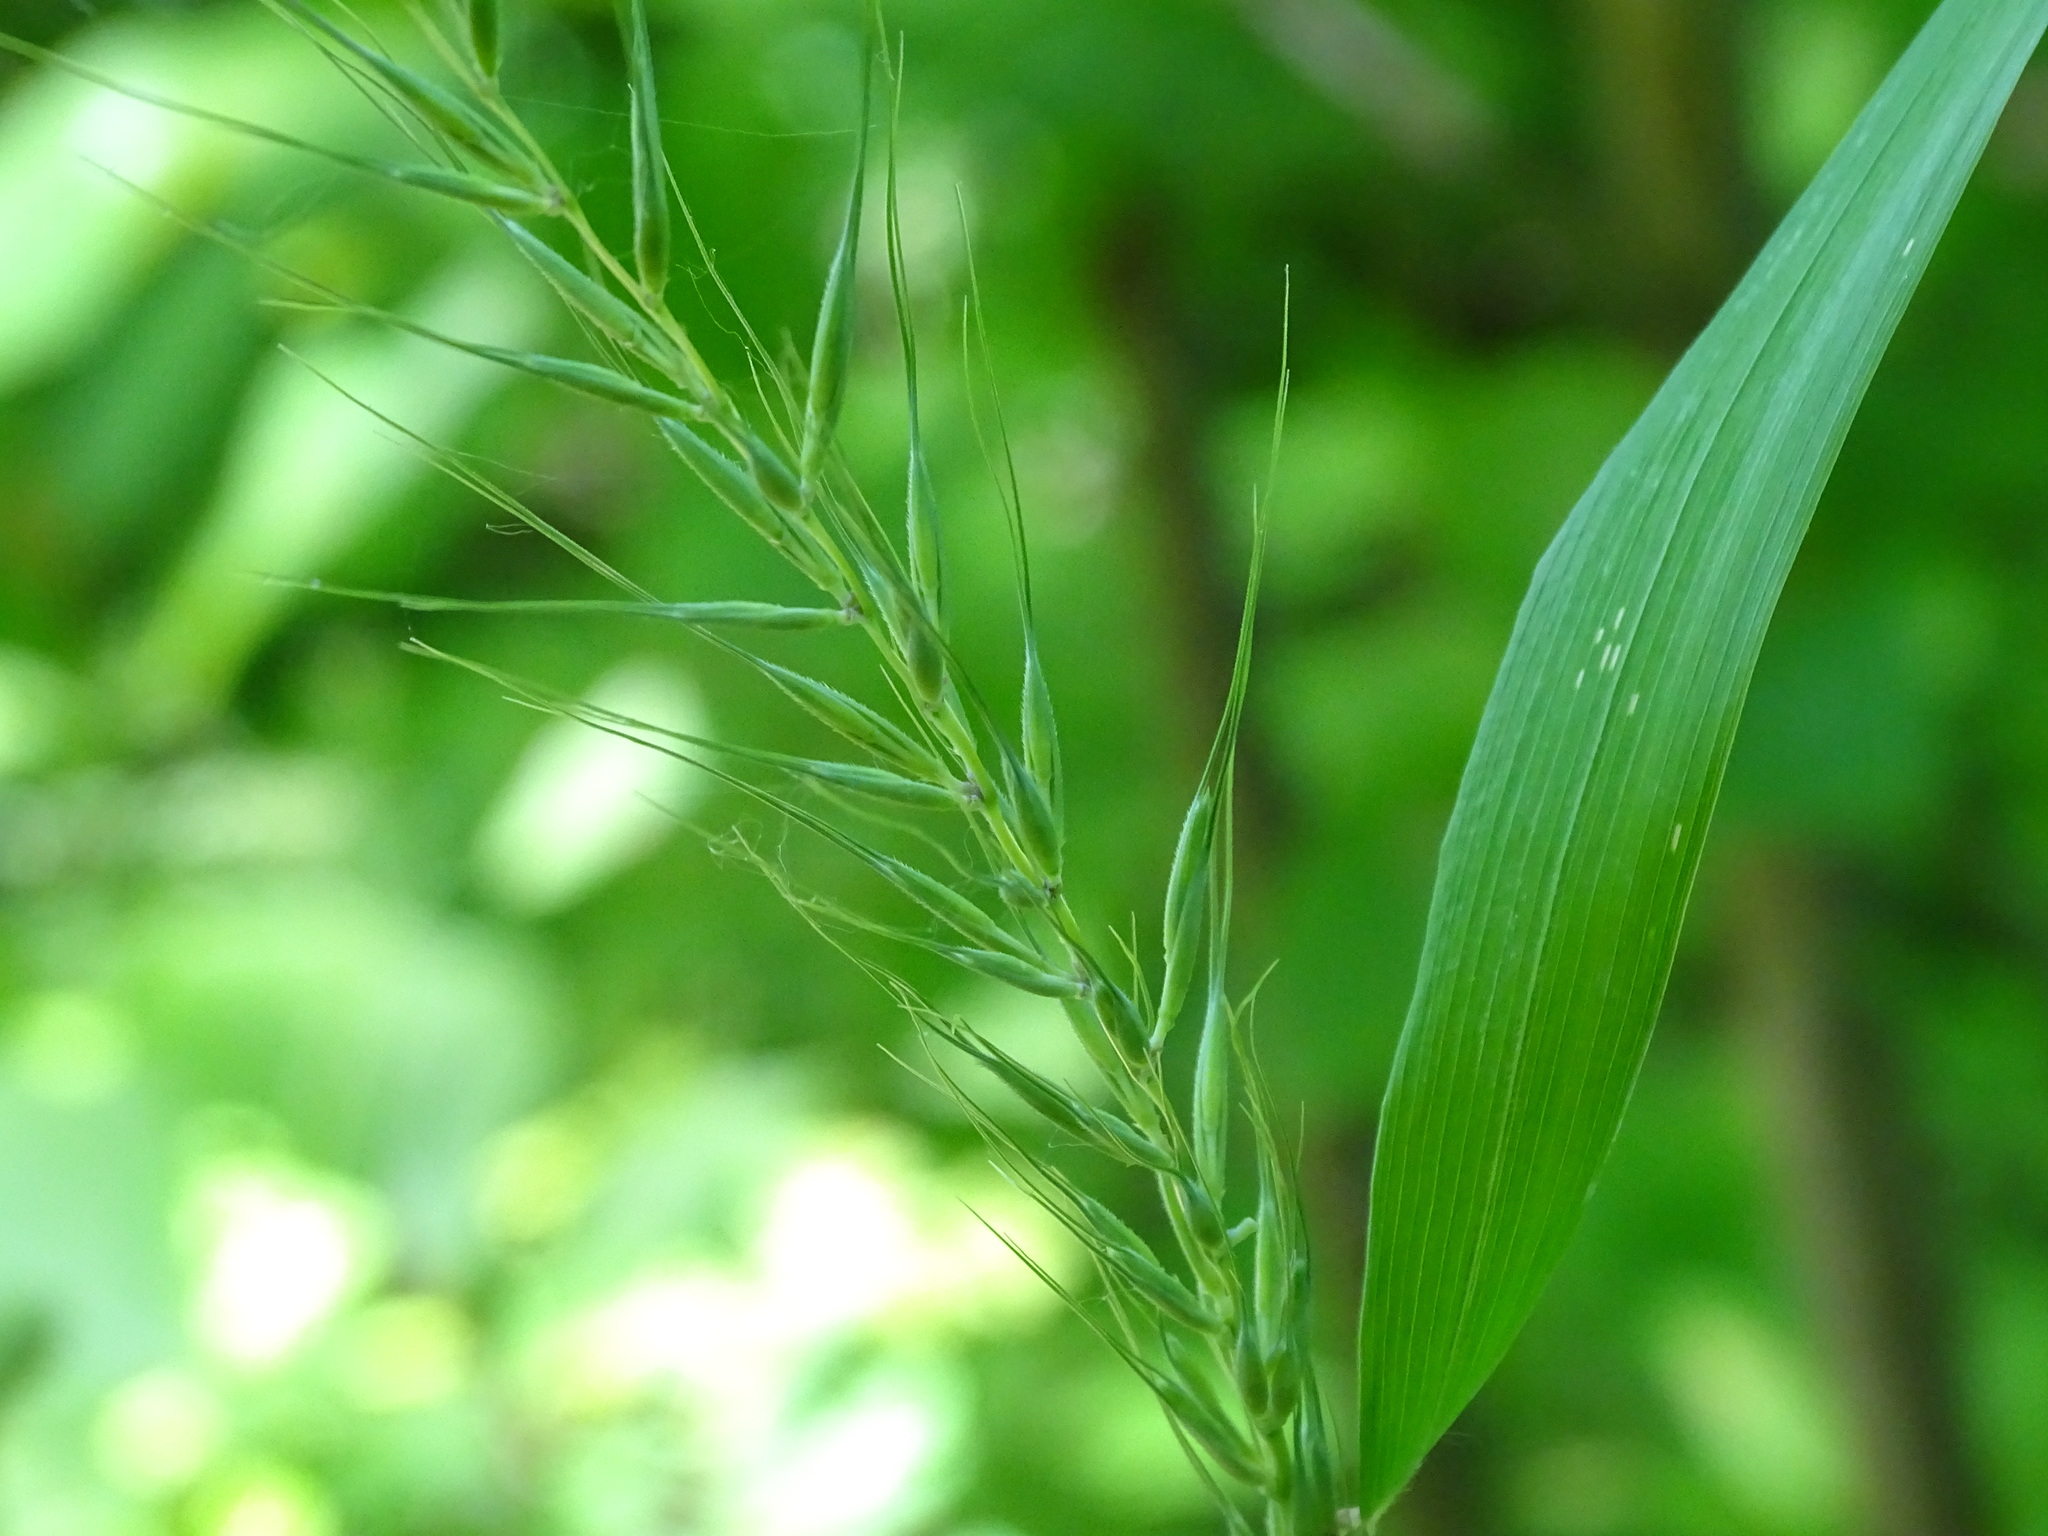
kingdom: Plantae
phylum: Tracheophyta
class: Liliopsida
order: Poales
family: Poaceae
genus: Elymus
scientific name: Elymus hystrix
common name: Bottlebrush grass
